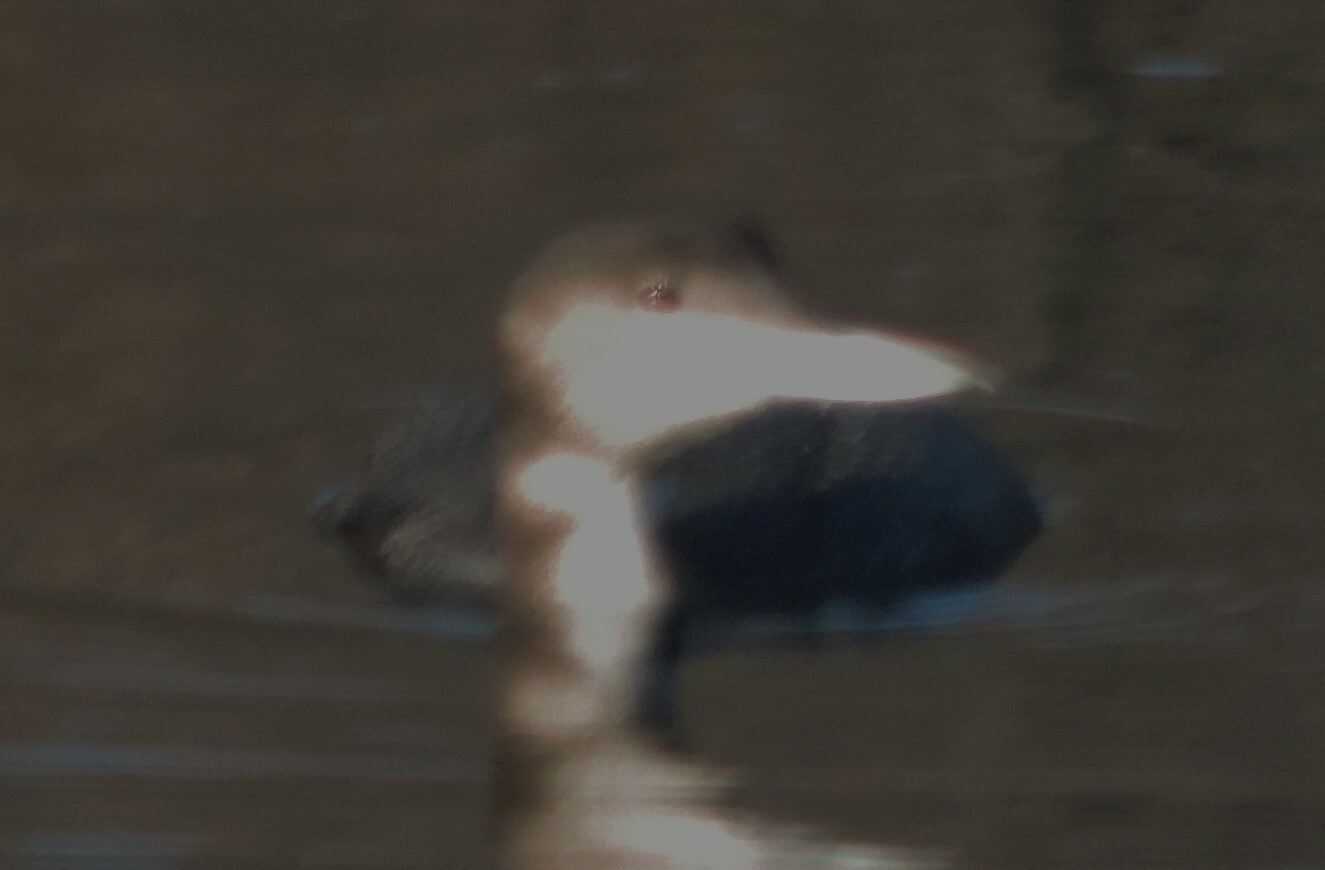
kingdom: Animalia
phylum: Chordata
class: Aves
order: Gaviiformes
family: Gaviidae
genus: Gavia
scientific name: Gavia immer
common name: Common loon
